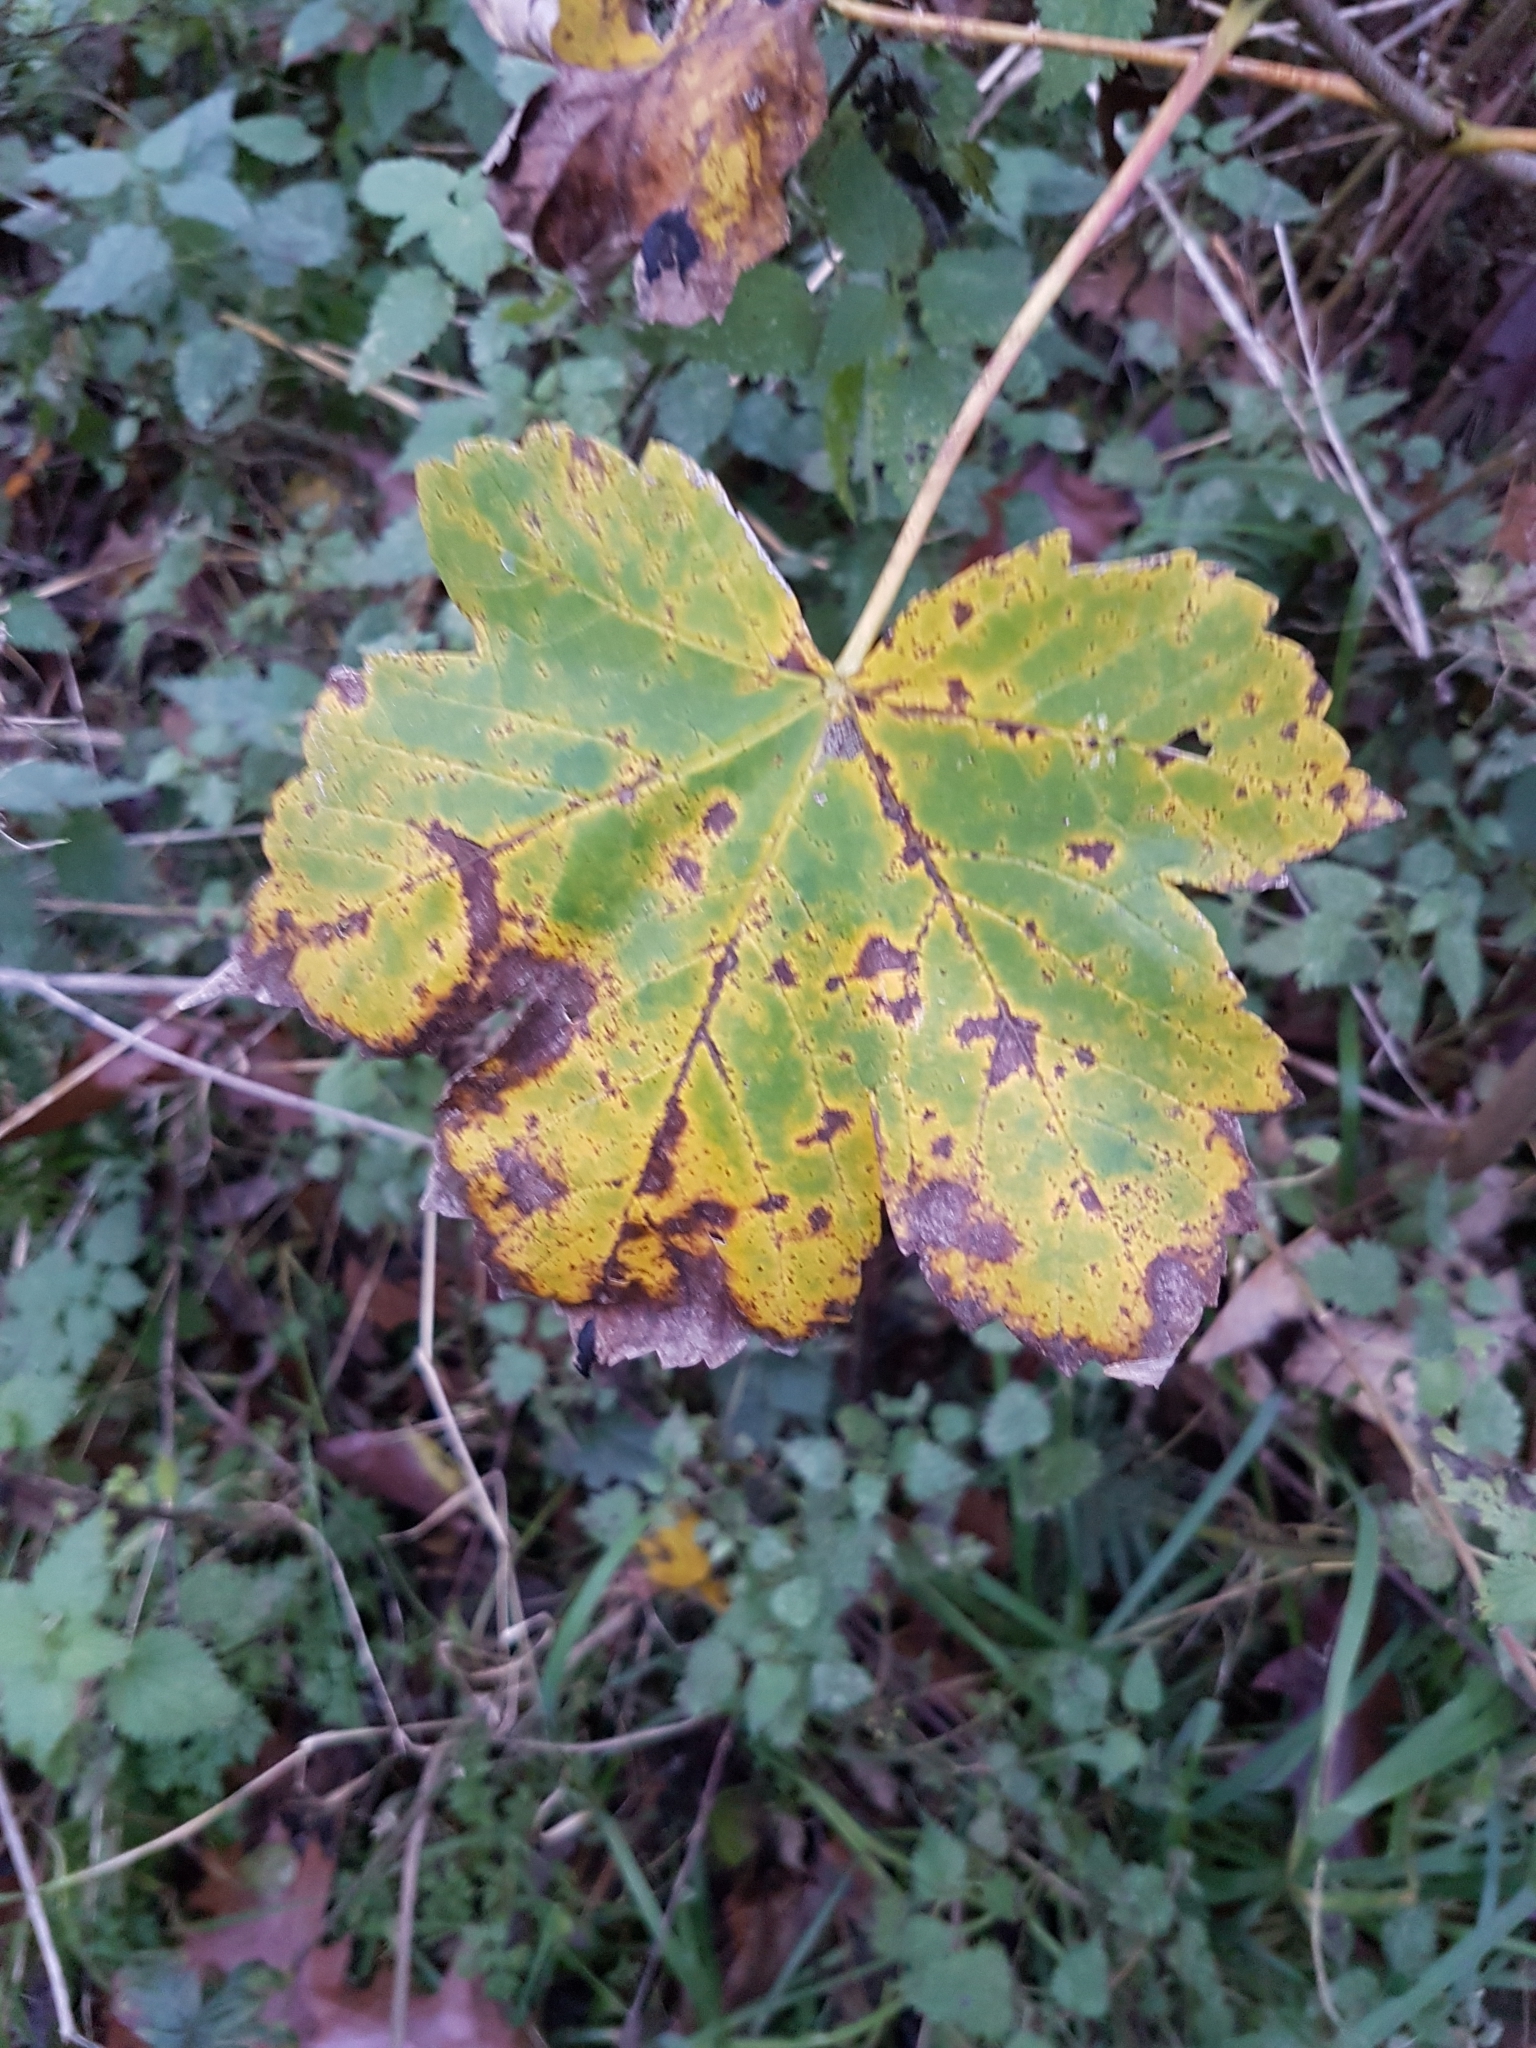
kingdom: Plantae
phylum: Tracheophyta
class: Magnoliopsida
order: Sapindales
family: Sapindaceae
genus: Acer
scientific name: Acer pseudoplatanus
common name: Sycamore
